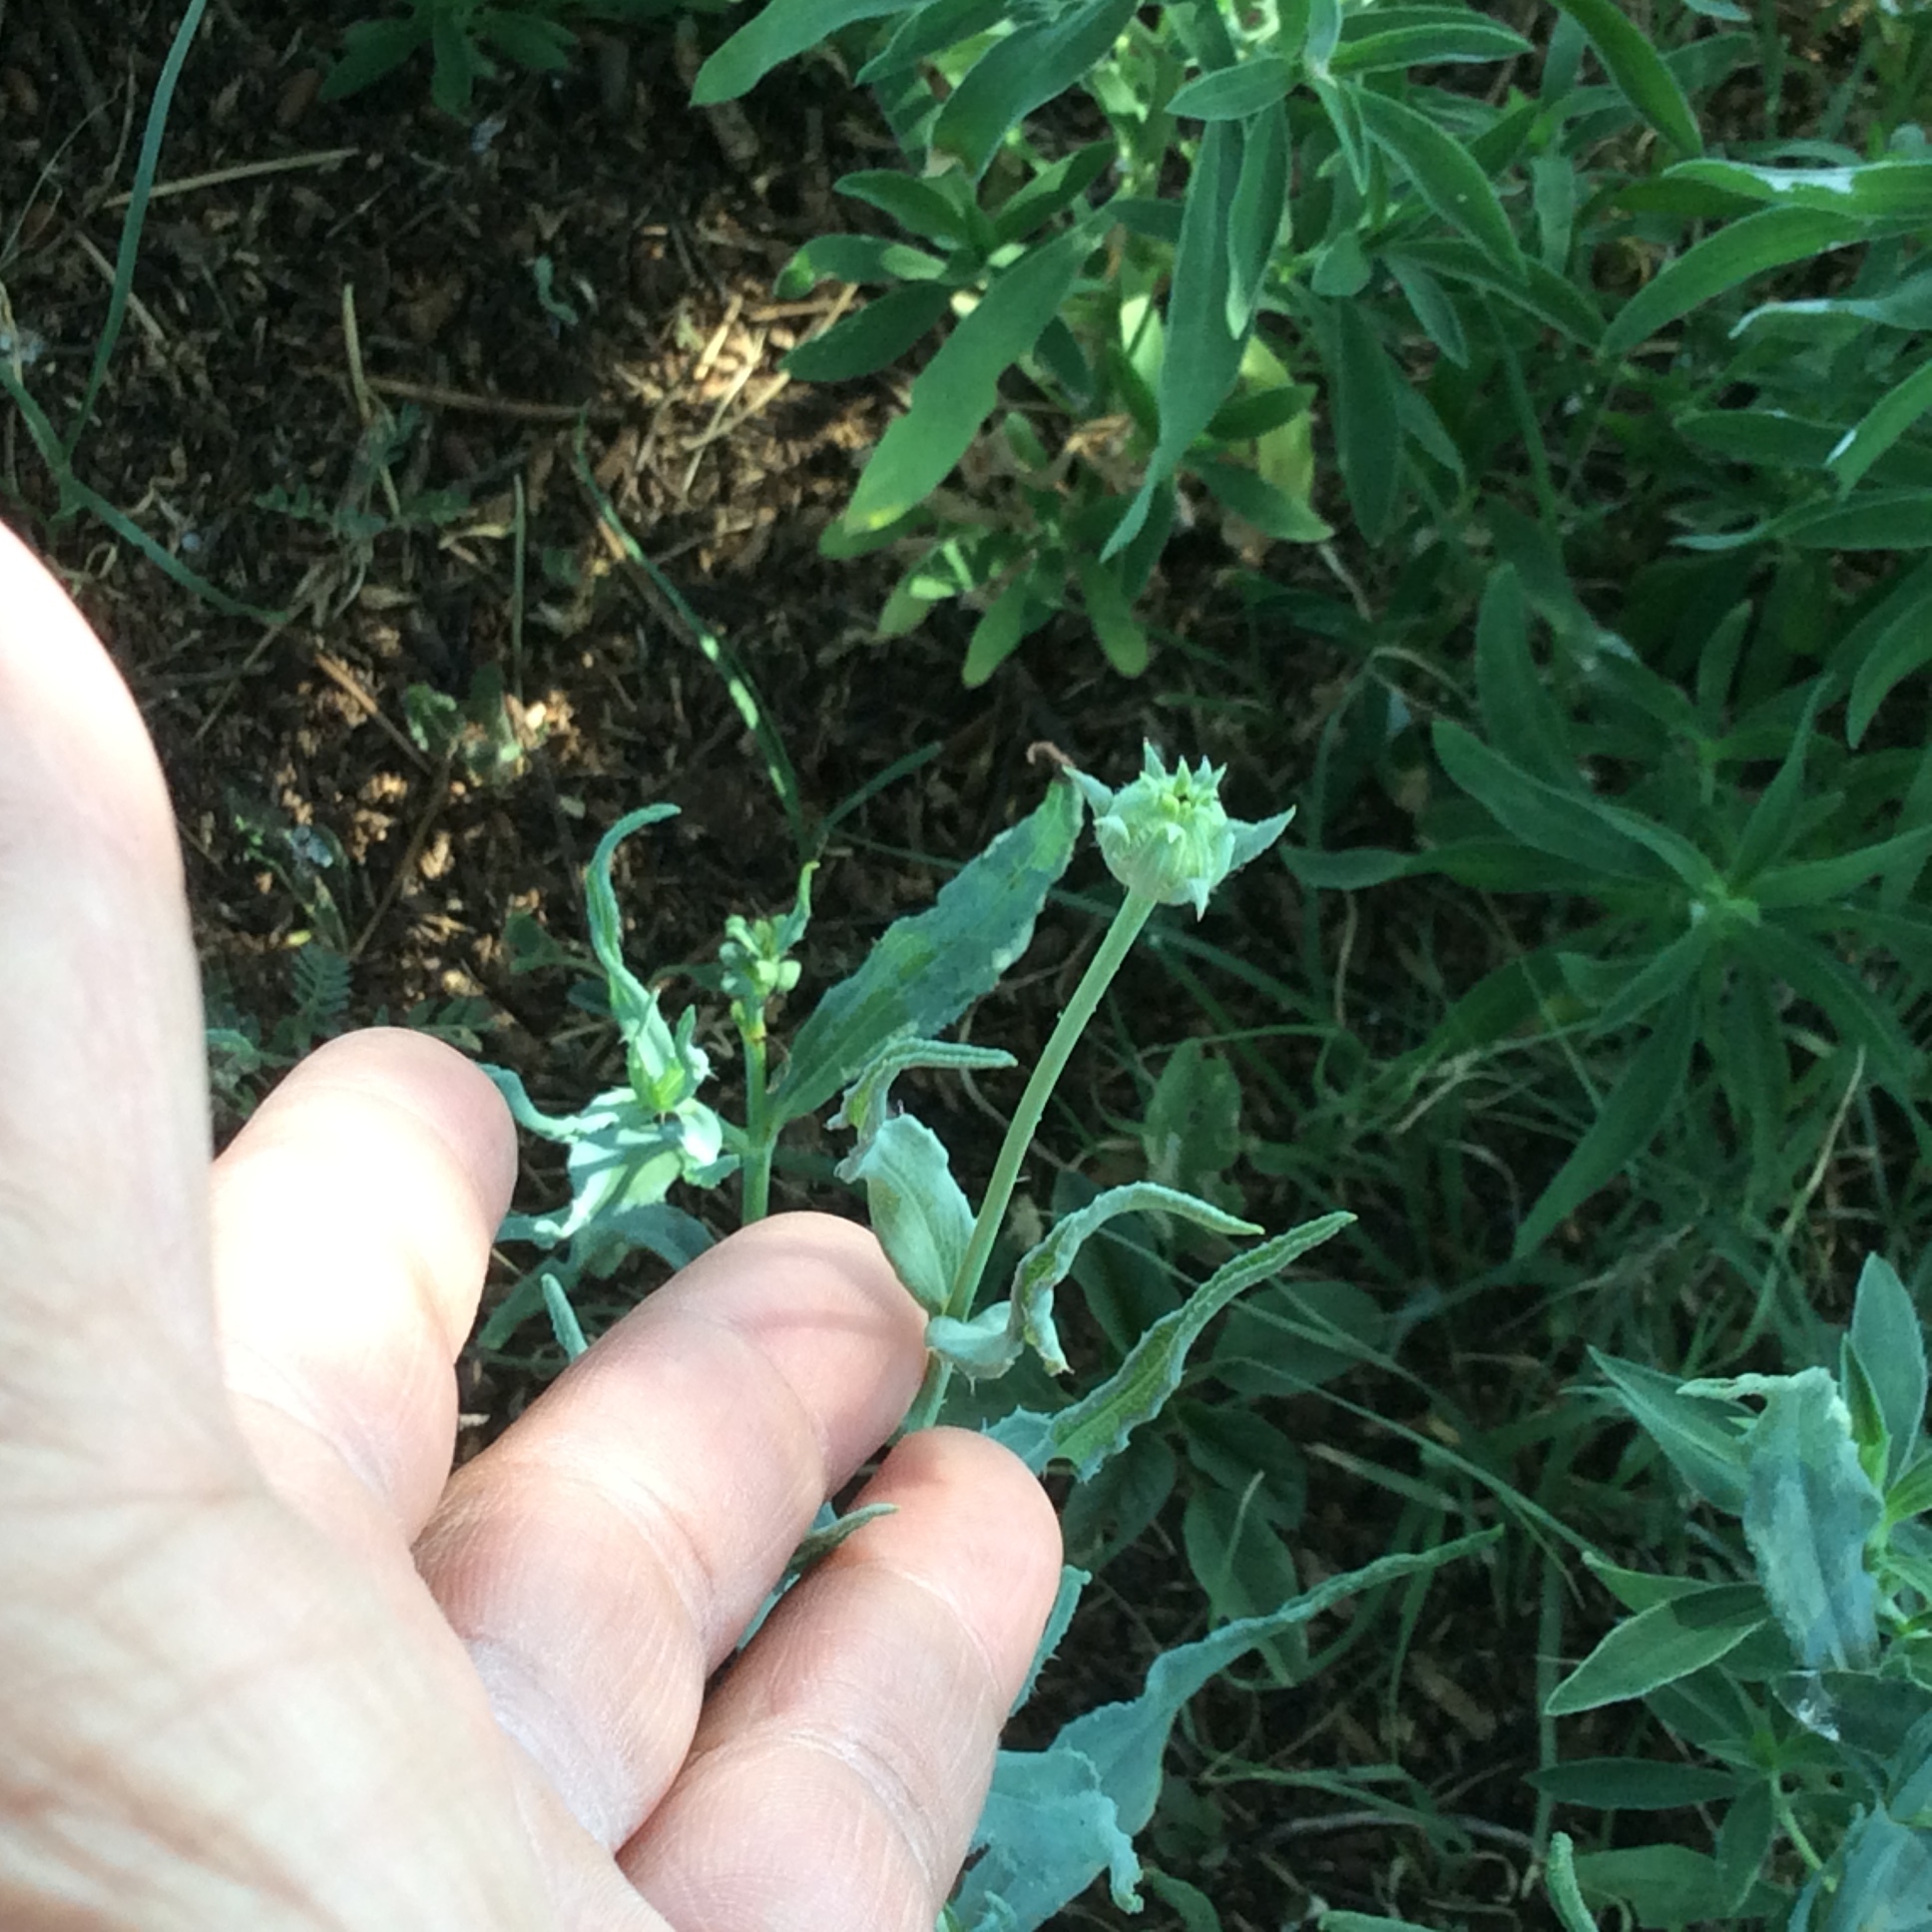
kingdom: Plantae
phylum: Tracheophyta
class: Magnoliopsida
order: Asterales
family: Asteraceae
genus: Helianthus
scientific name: Helianthus ciliaris
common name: Texas blueweed
